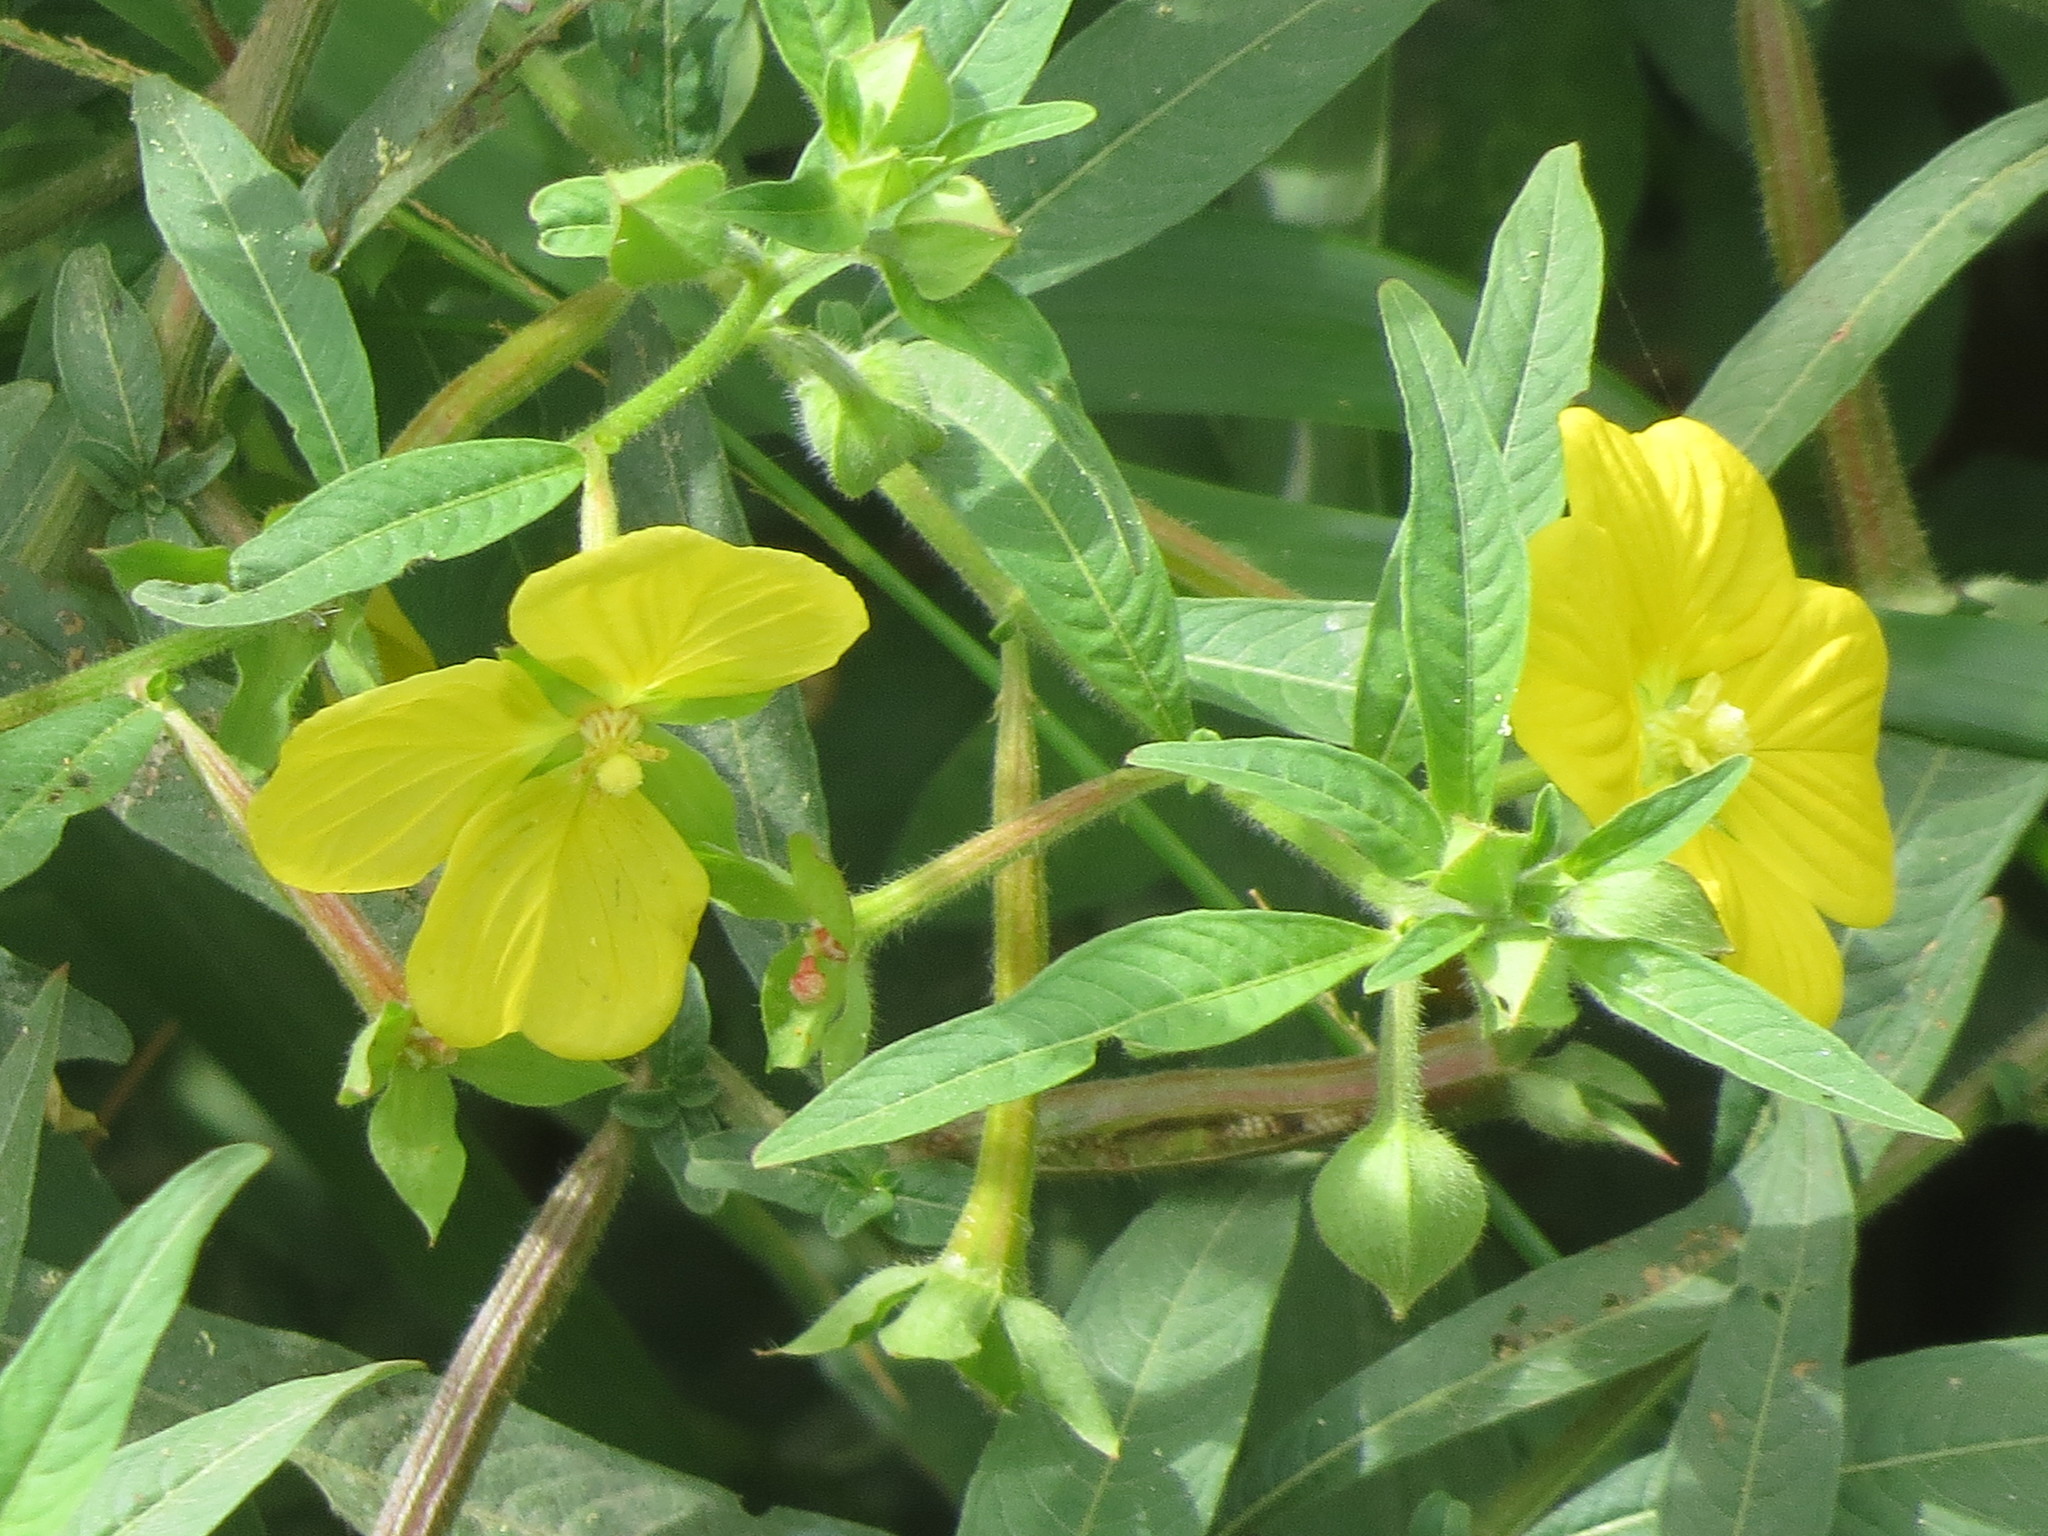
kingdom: Plantae
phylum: Tracheophyta
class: Magnoliopsida
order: Myrtales
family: Onagraceae
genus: Ludwigia
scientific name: Ludwigia octovalvis
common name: Water-primrose
